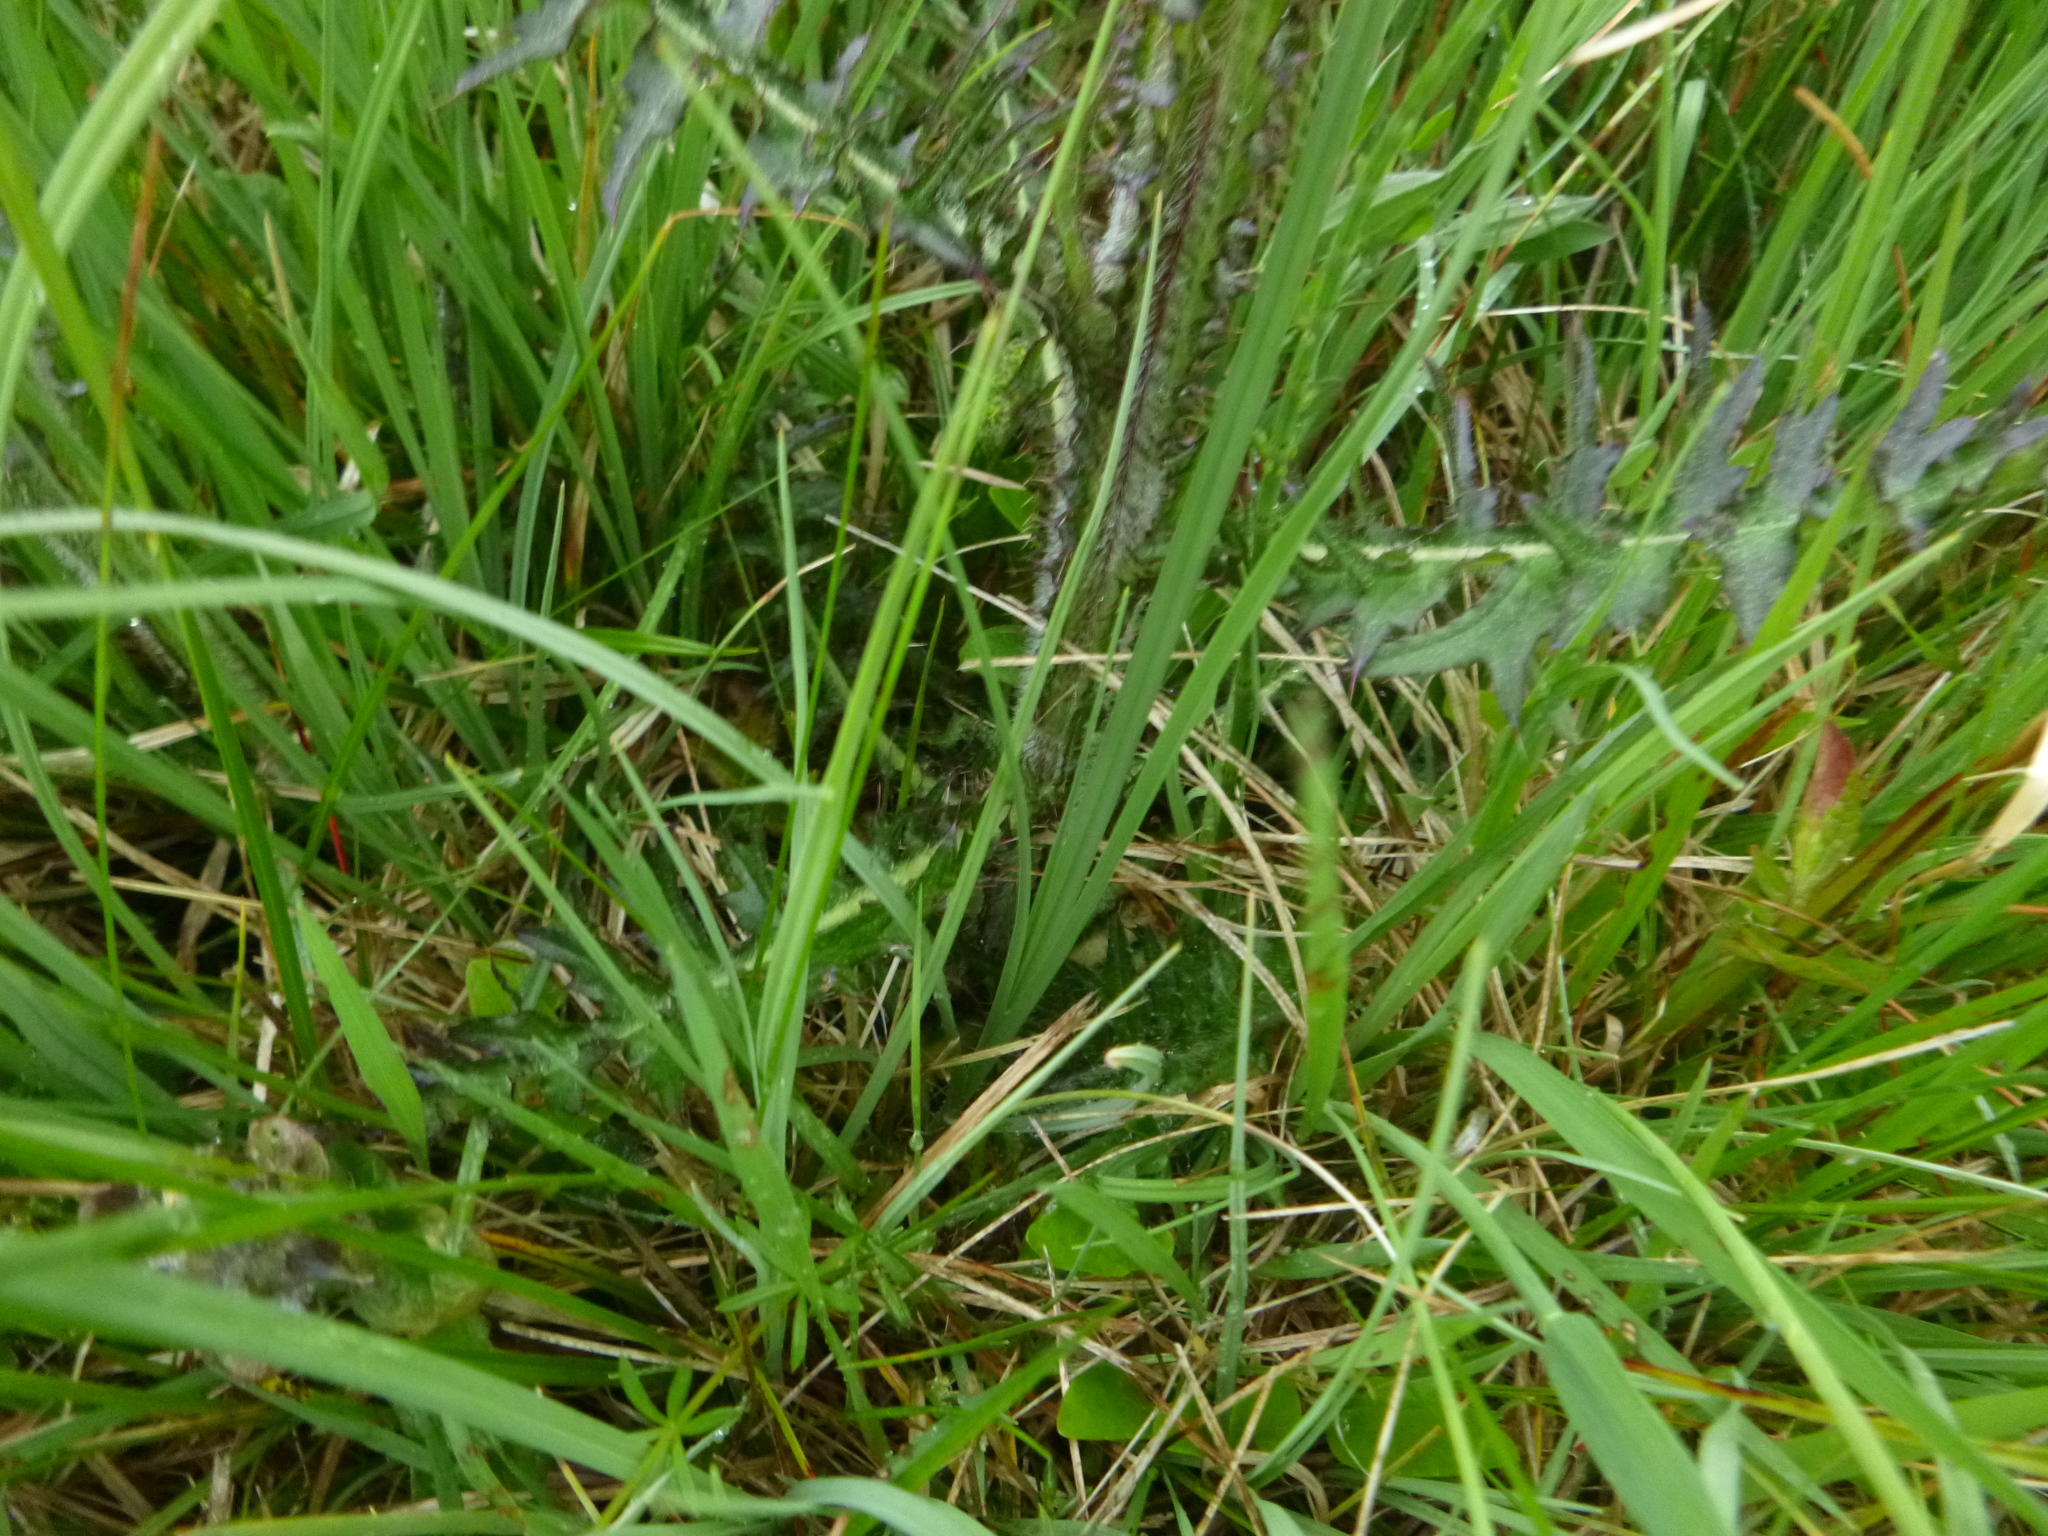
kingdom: Plantae
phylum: Tracheophyta
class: Magnoliopsida
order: Asterales
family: Asteraceae
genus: Cirsium
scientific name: Cirsium palustre
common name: Marsh thistle
